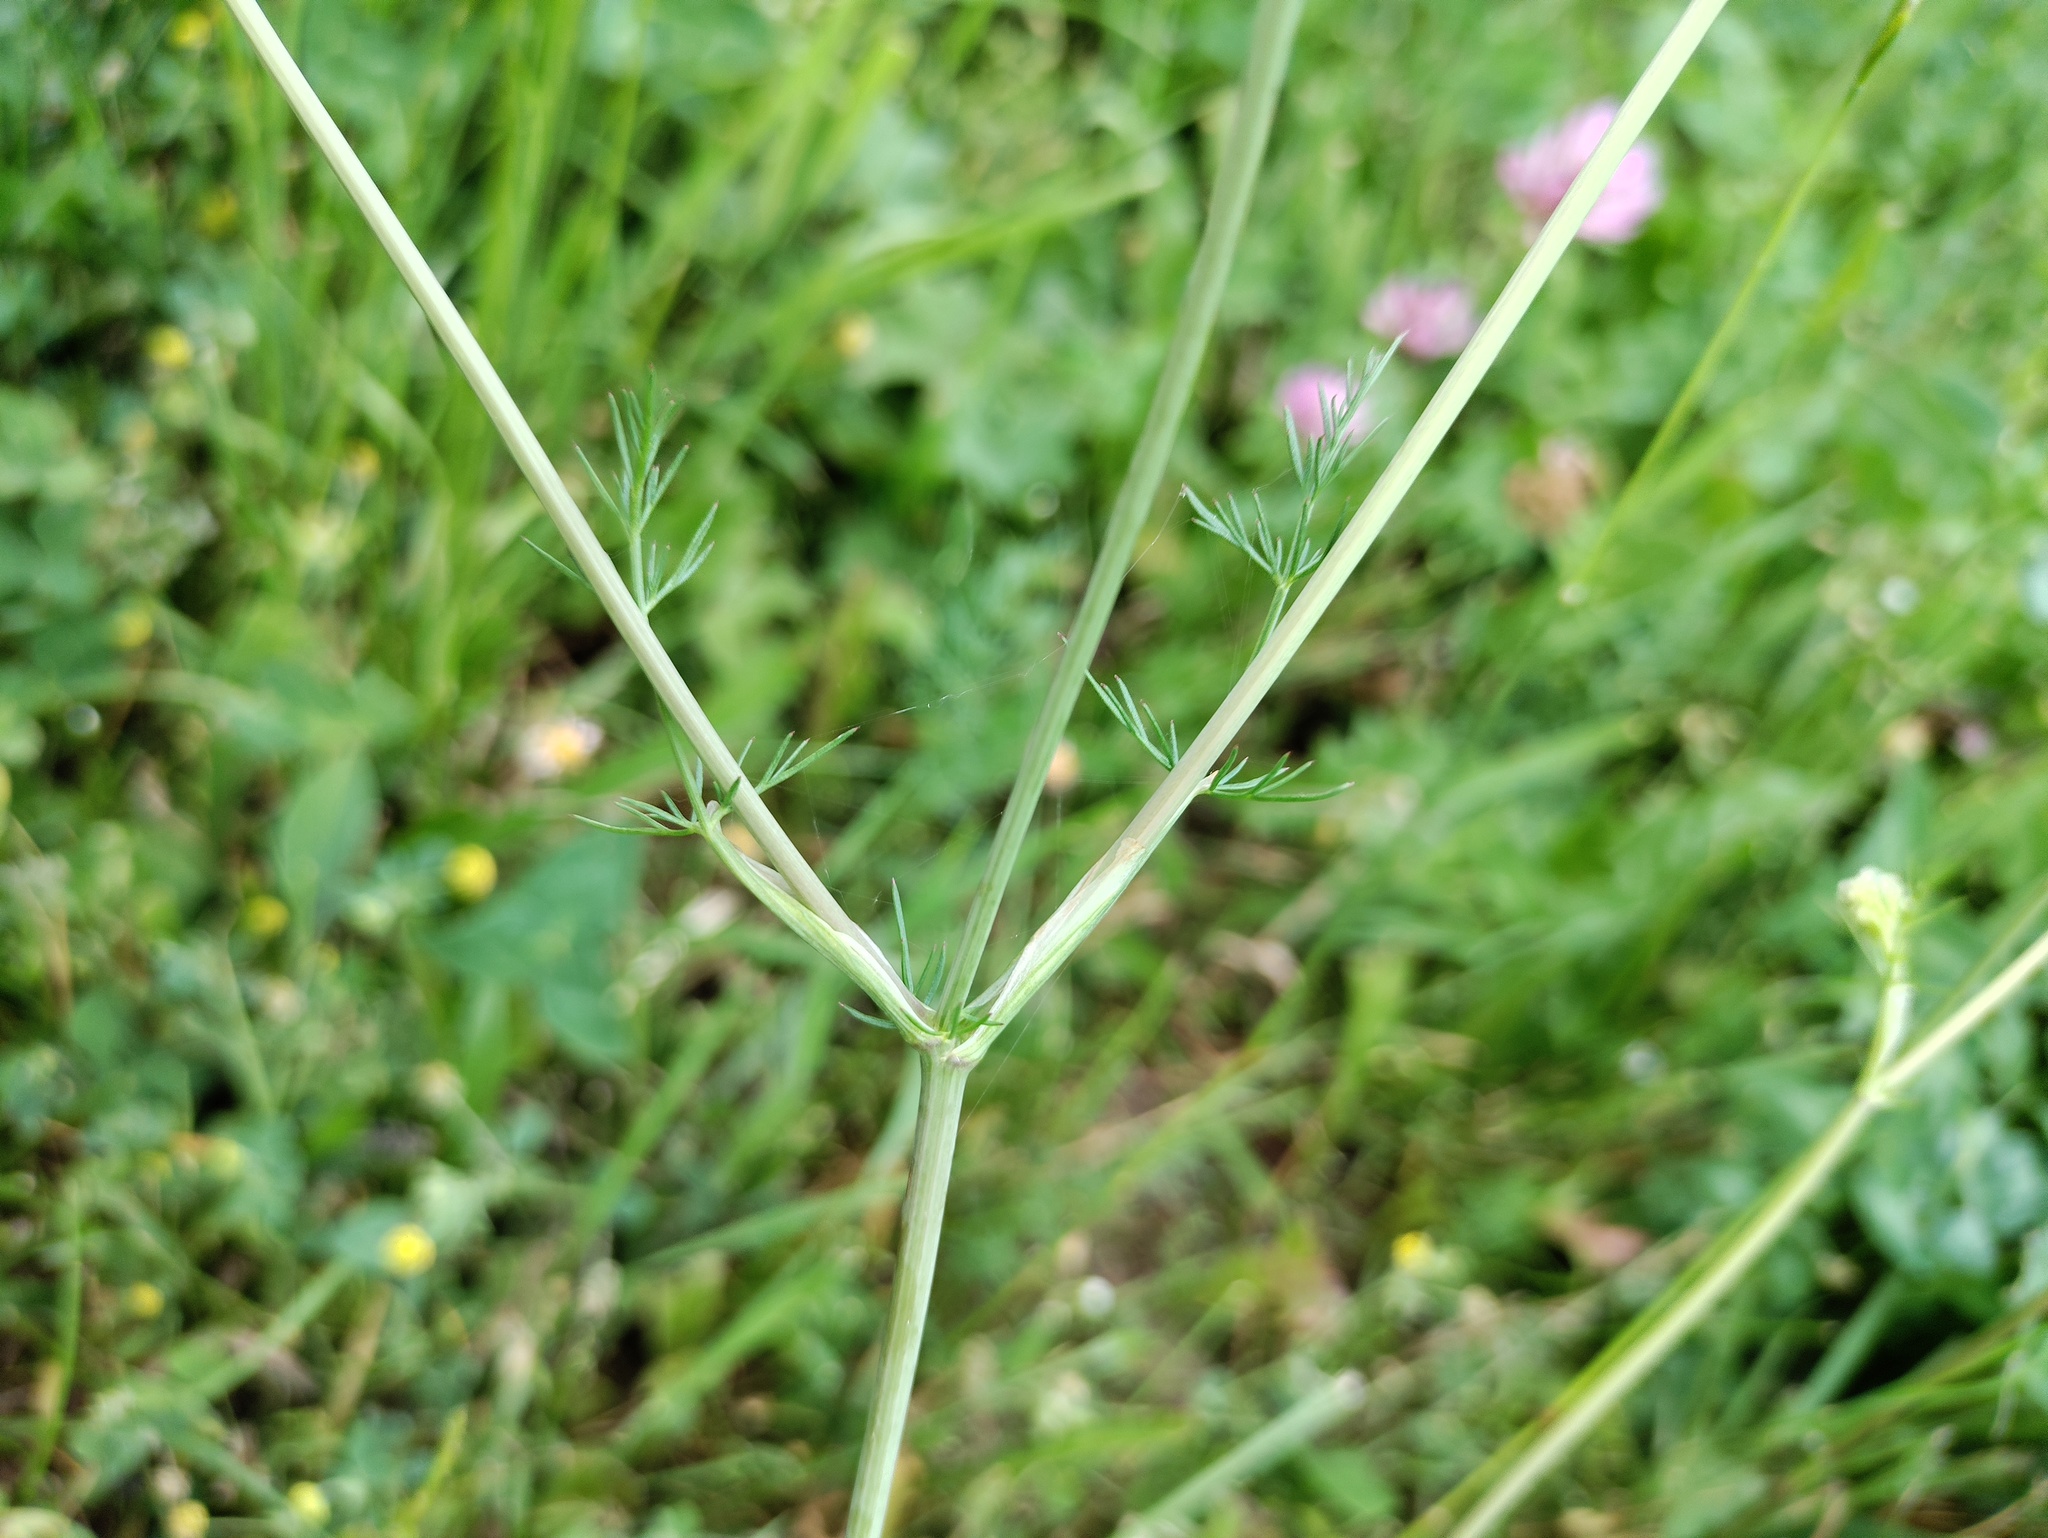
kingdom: Plantae
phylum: Tracheophyta
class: Magnoliopsida
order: Apiales
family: Apiaceae
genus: Carum
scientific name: Carum carvi
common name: Caraway
